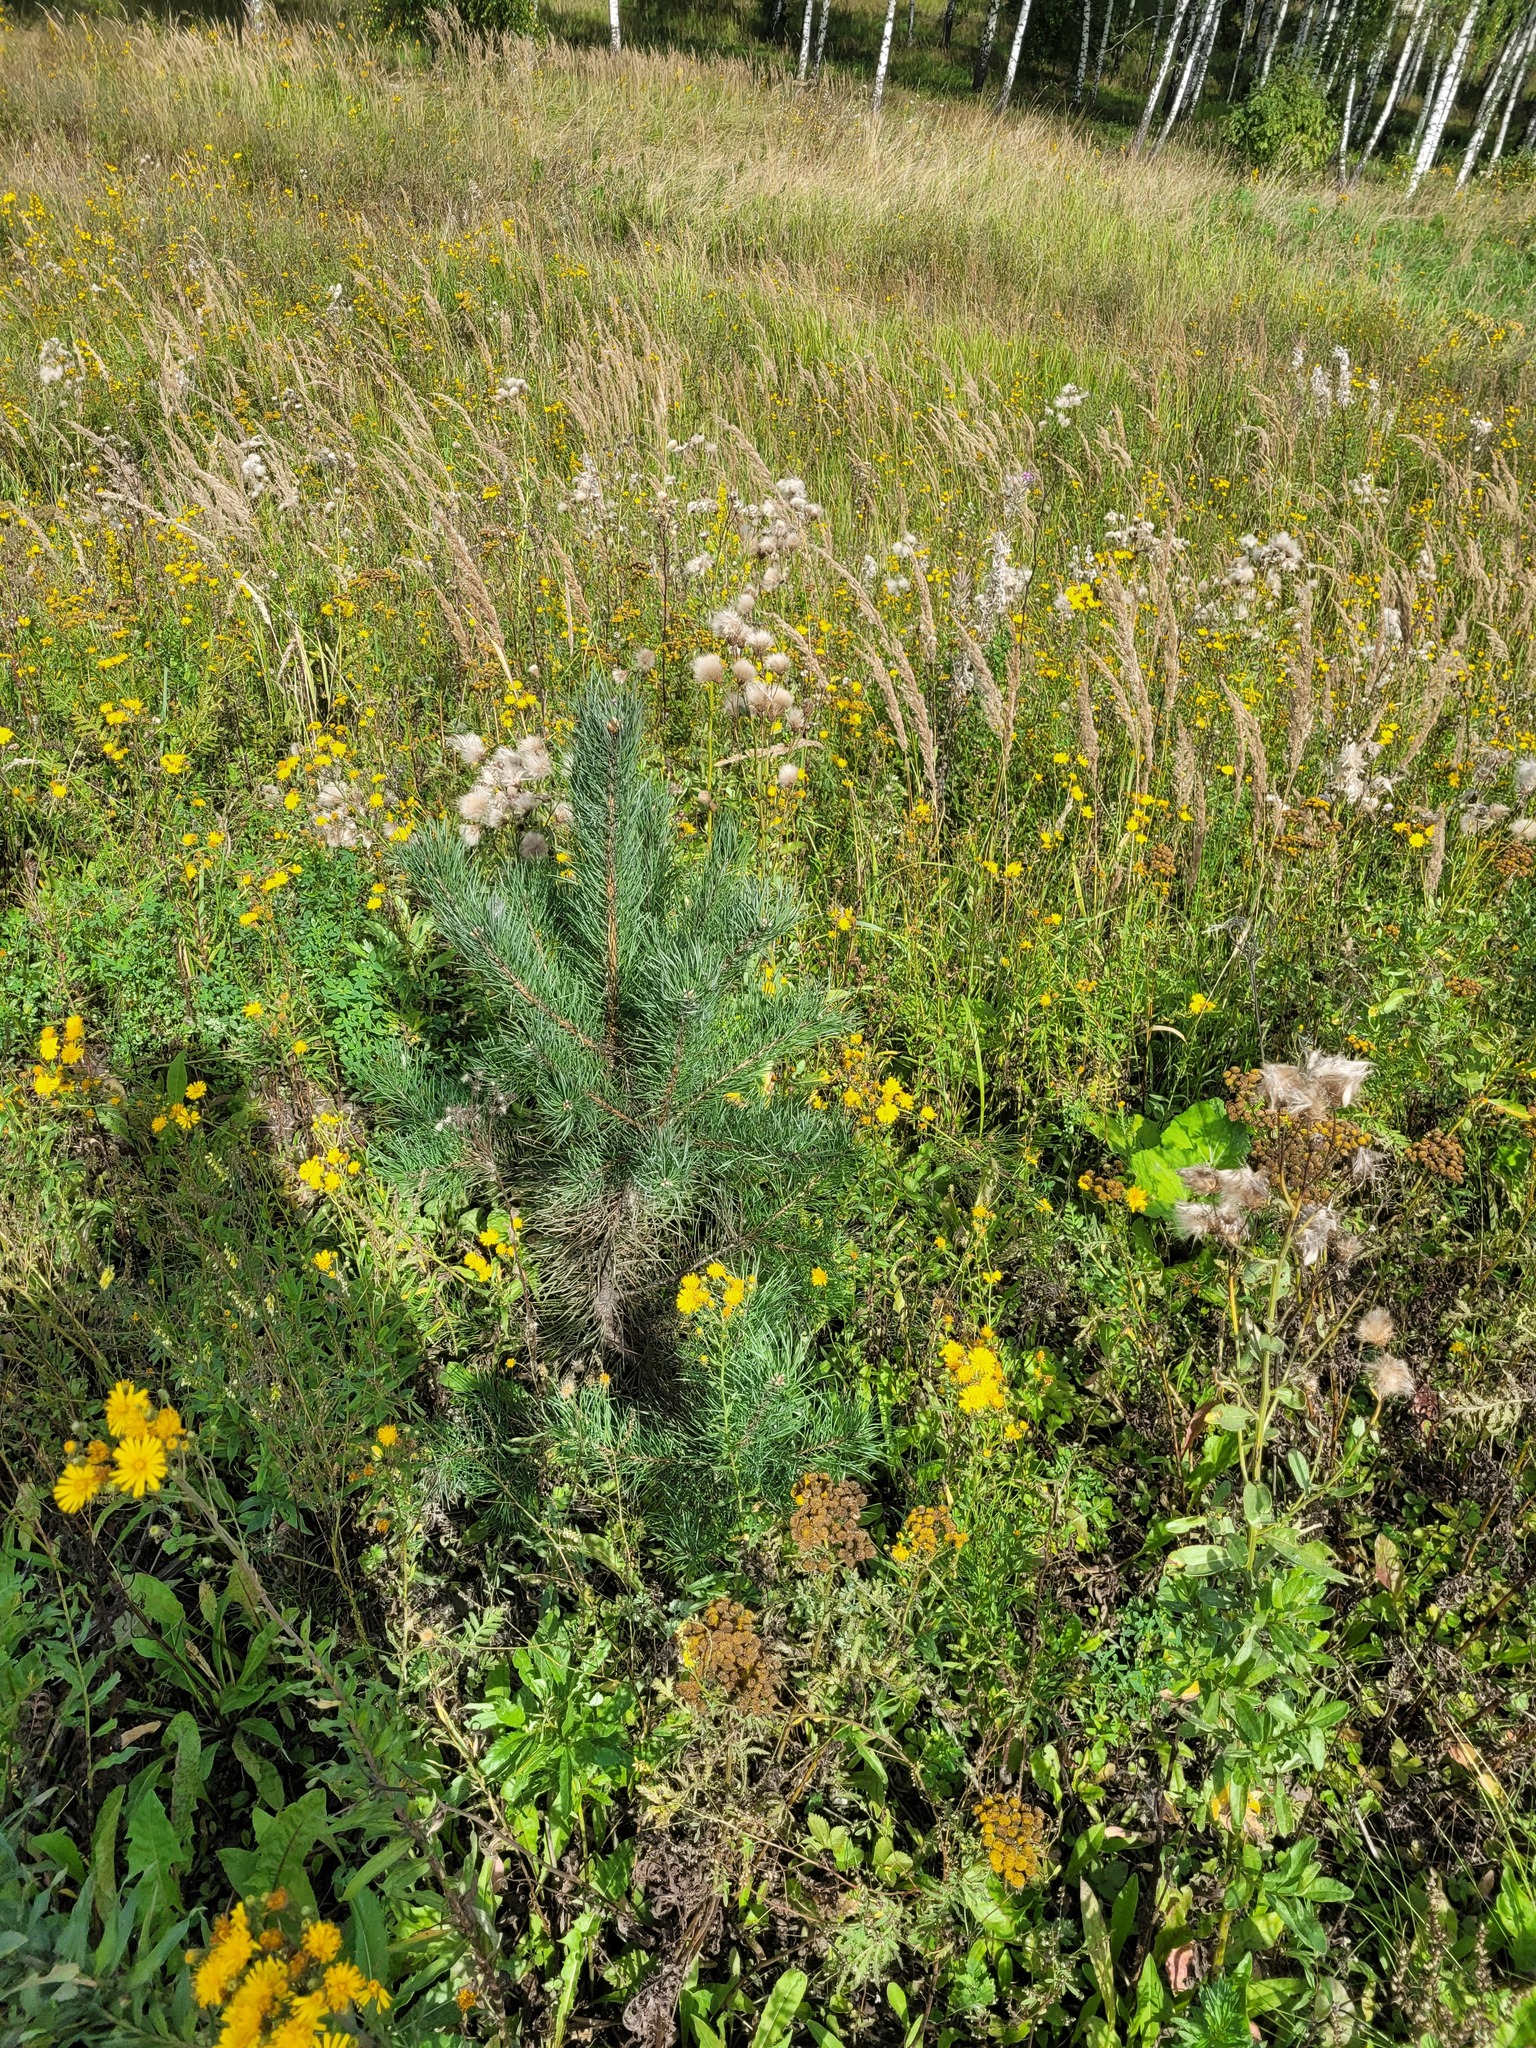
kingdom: Plantae
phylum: Tracheophyta
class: Pinopsida
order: Pinales
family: Pinaceae
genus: Pinus
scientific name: Pinus sylvestris
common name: Scots pine
